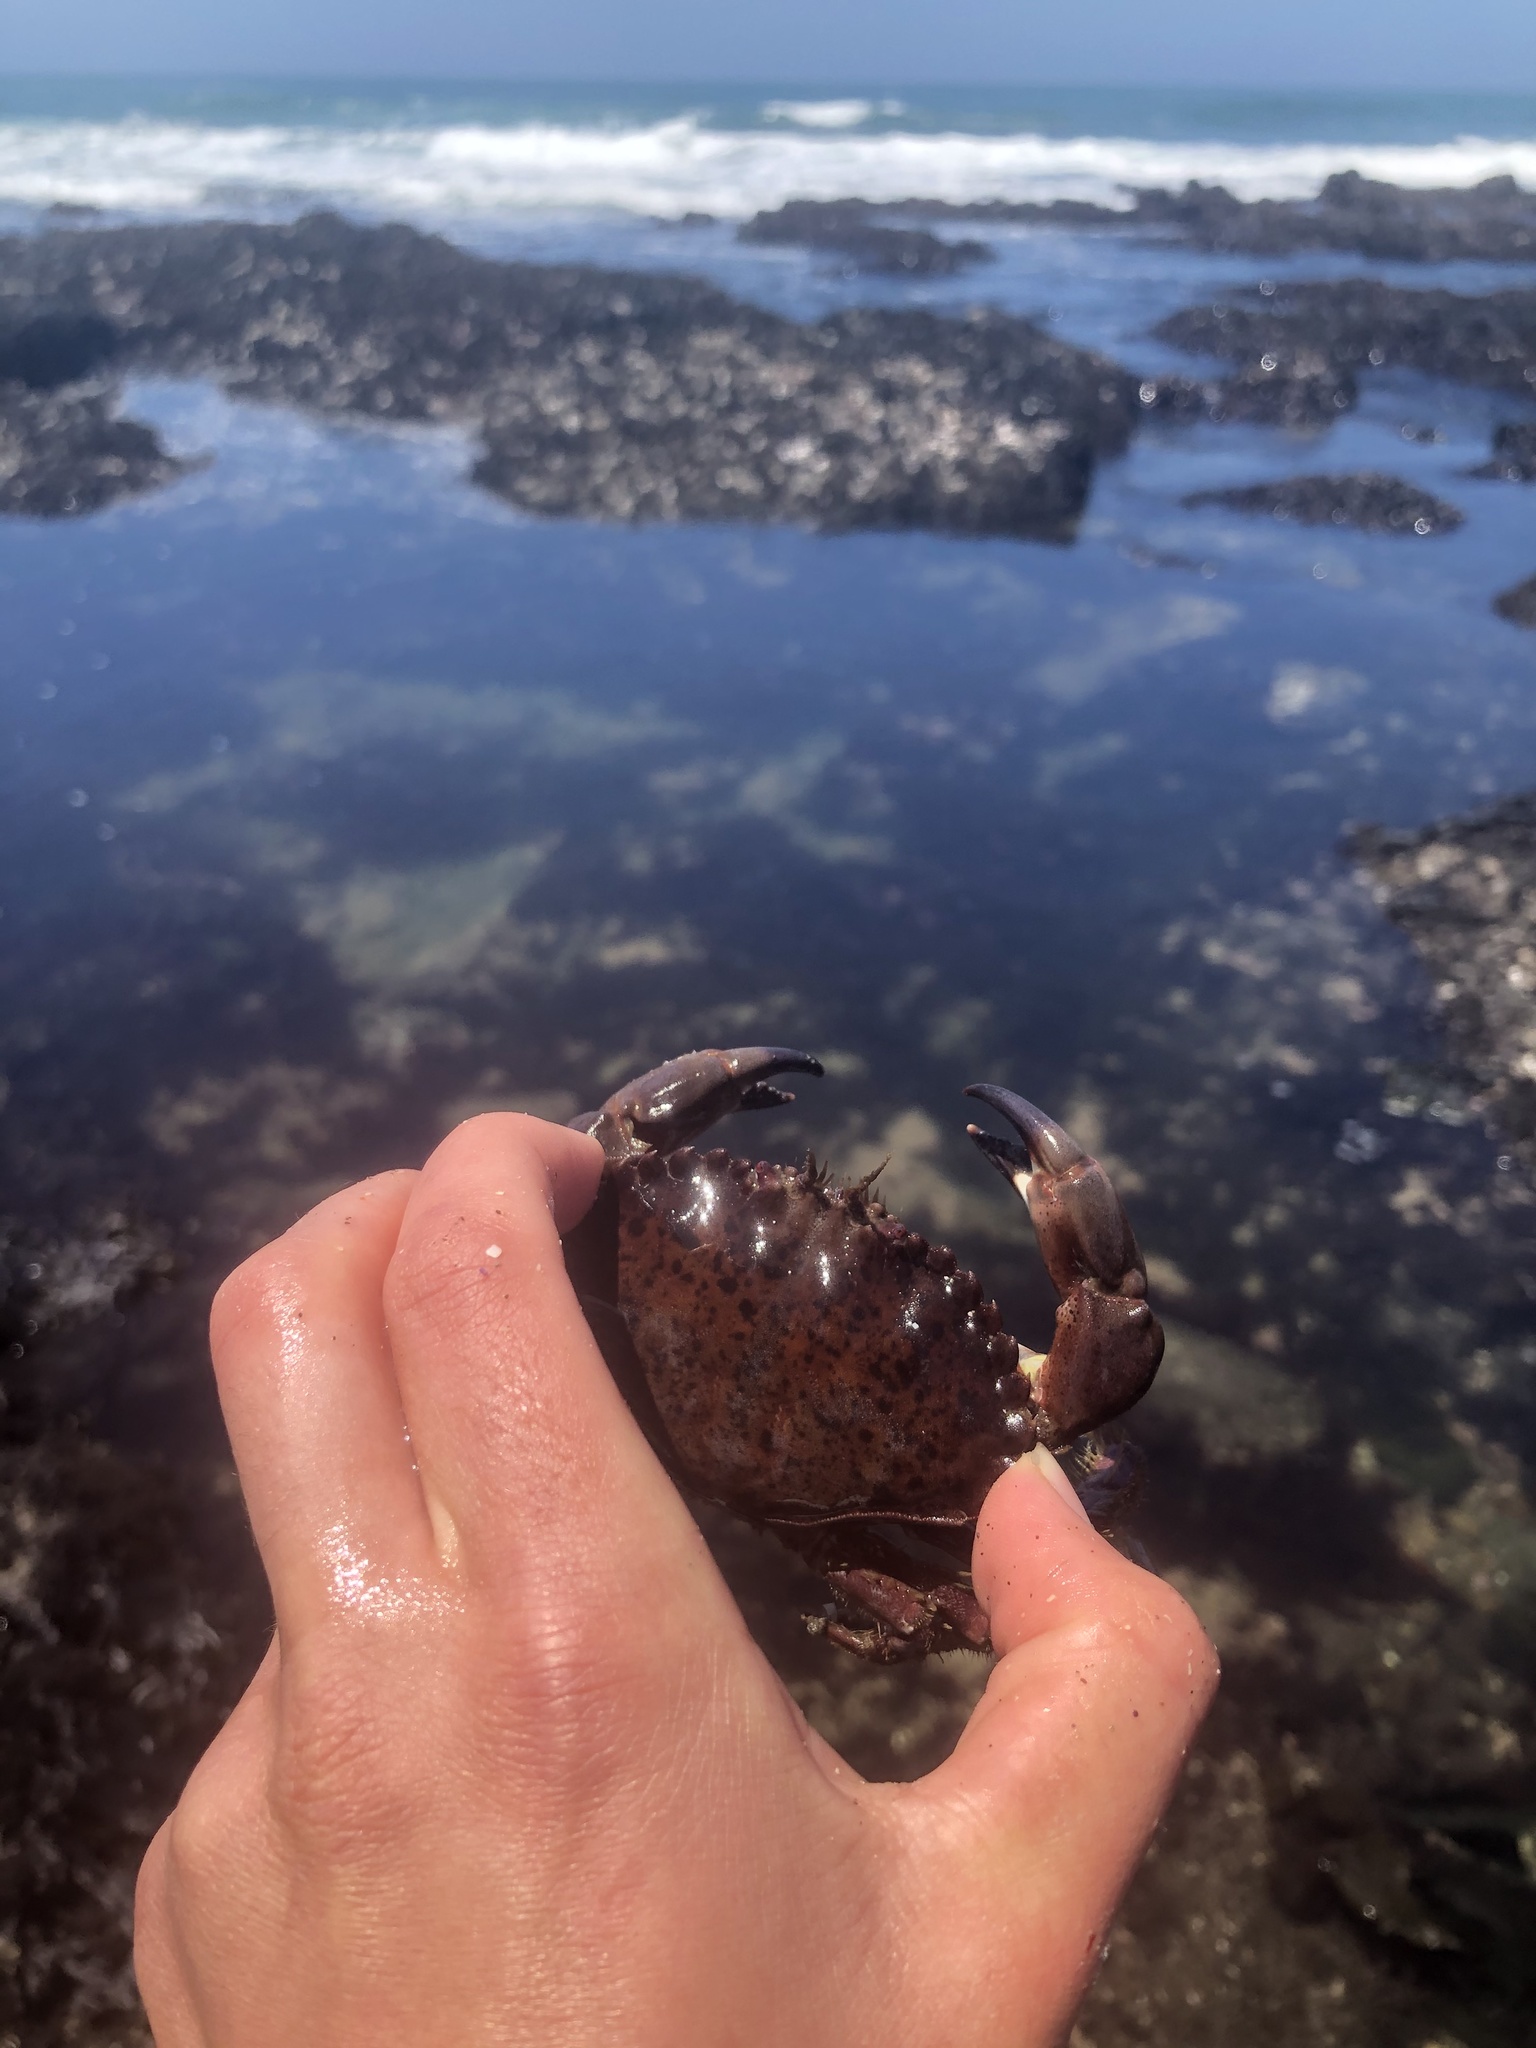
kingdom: Animalia
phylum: Arthropoda
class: Malacostraca
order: Decapoda
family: Cancridae
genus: Romaleon
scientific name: Romaleon antennarium
